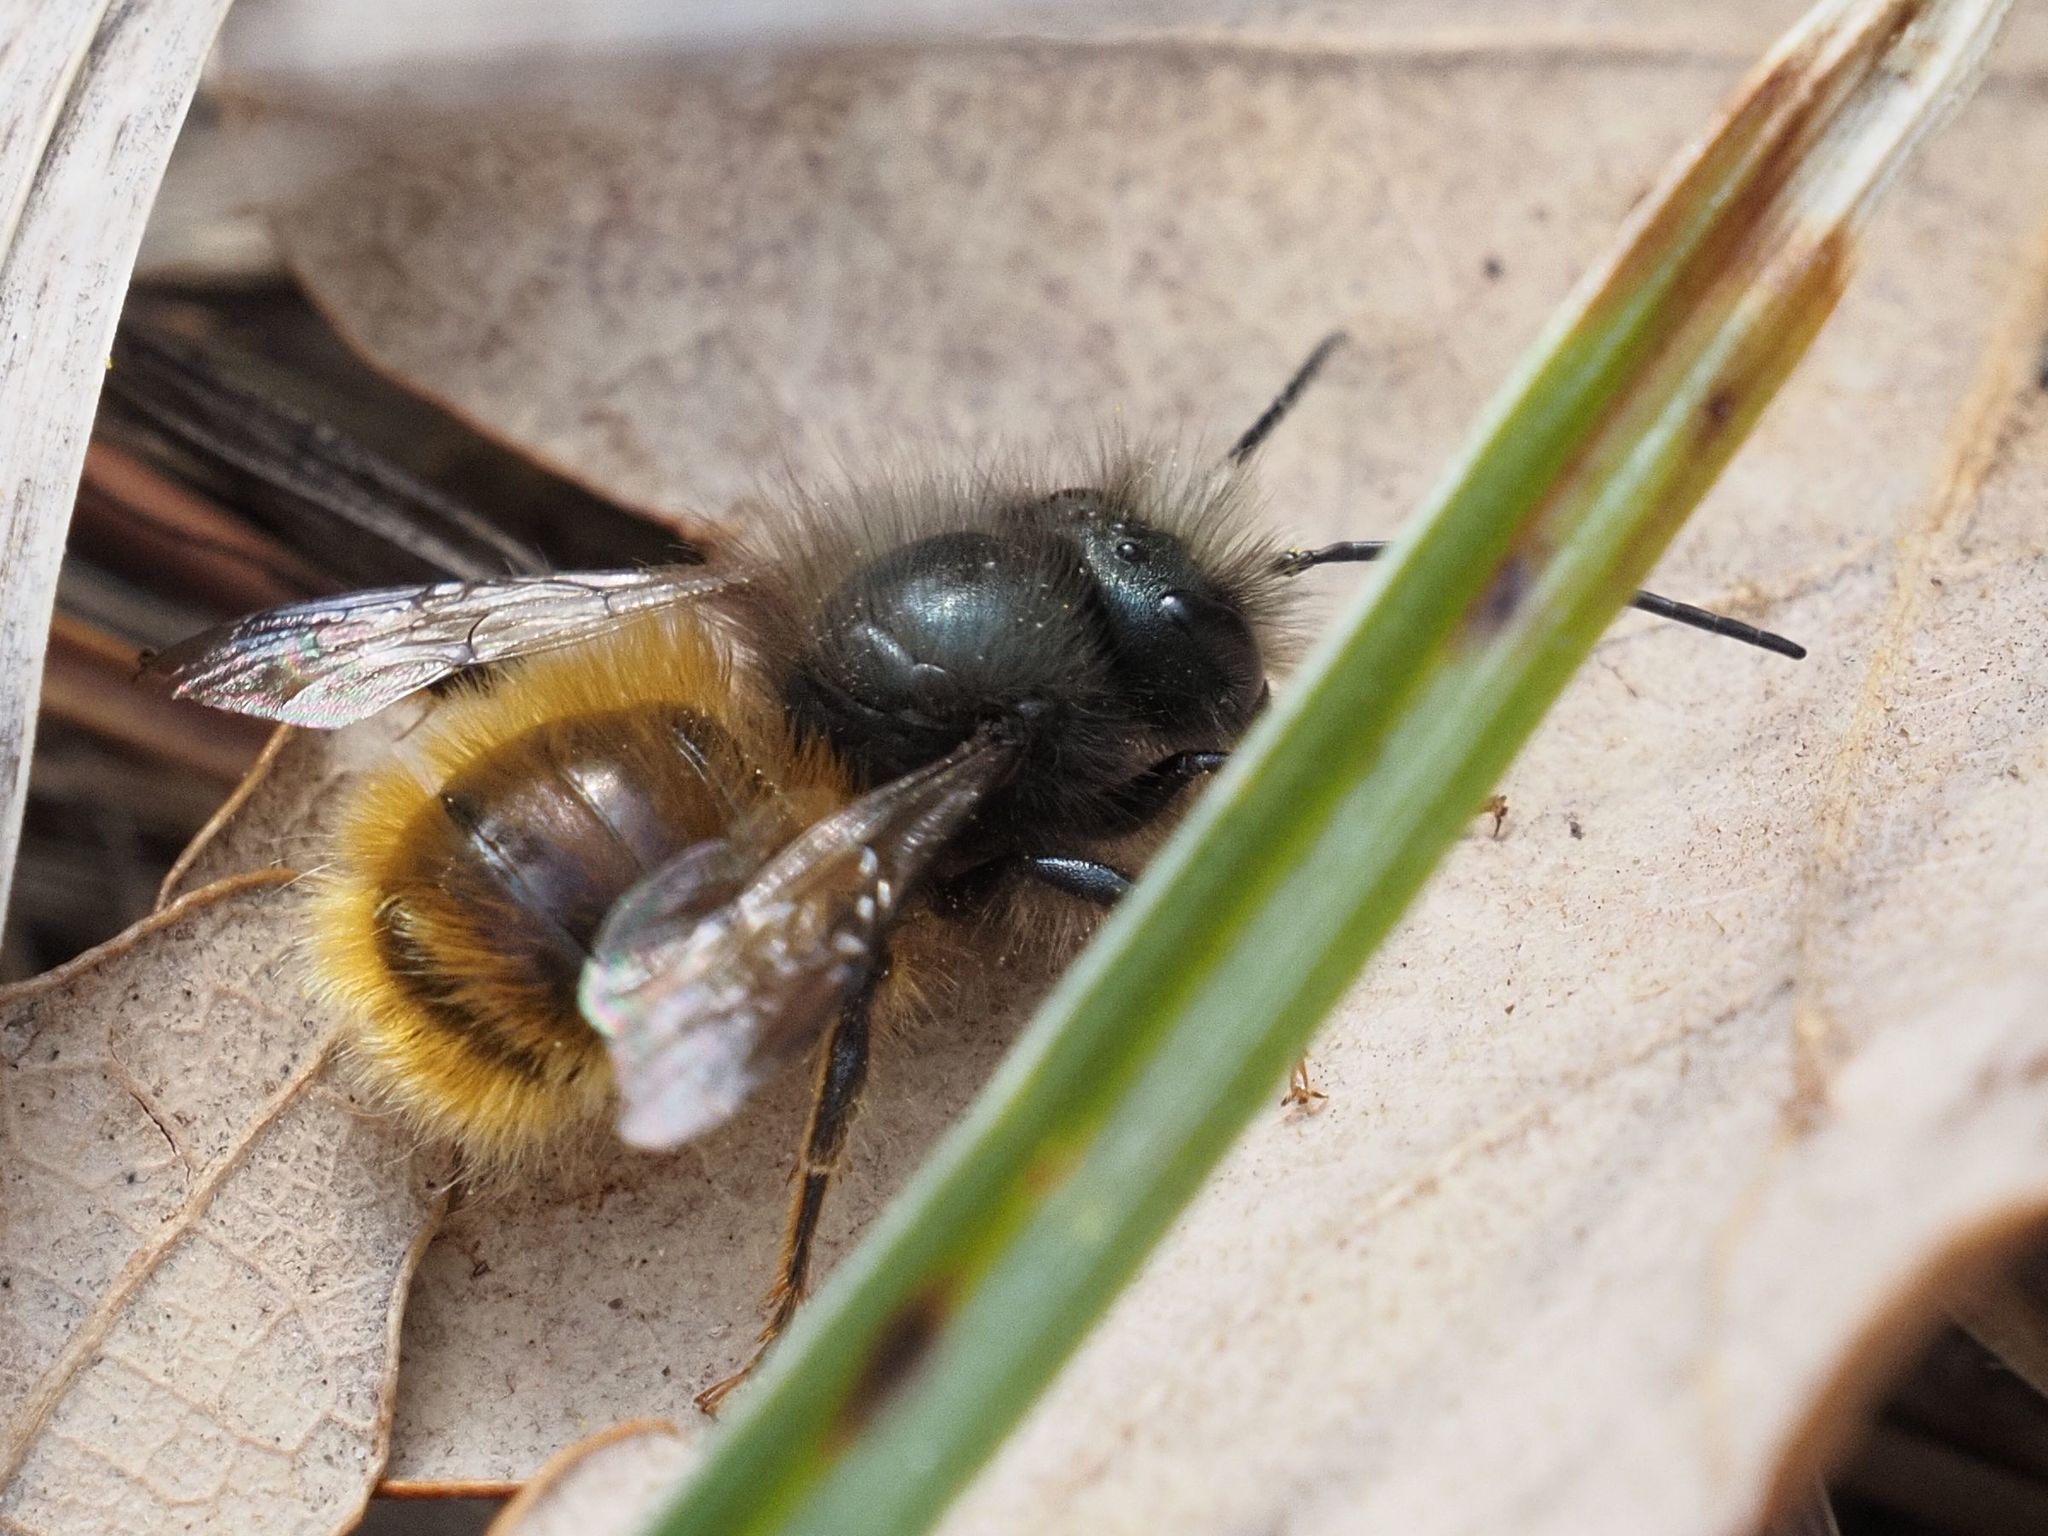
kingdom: Animalia
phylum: Arthropoda
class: Insecta
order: Hymenoptera
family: Megachilidae
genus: Osmia
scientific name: Osmia cornuta
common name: Mason bee
